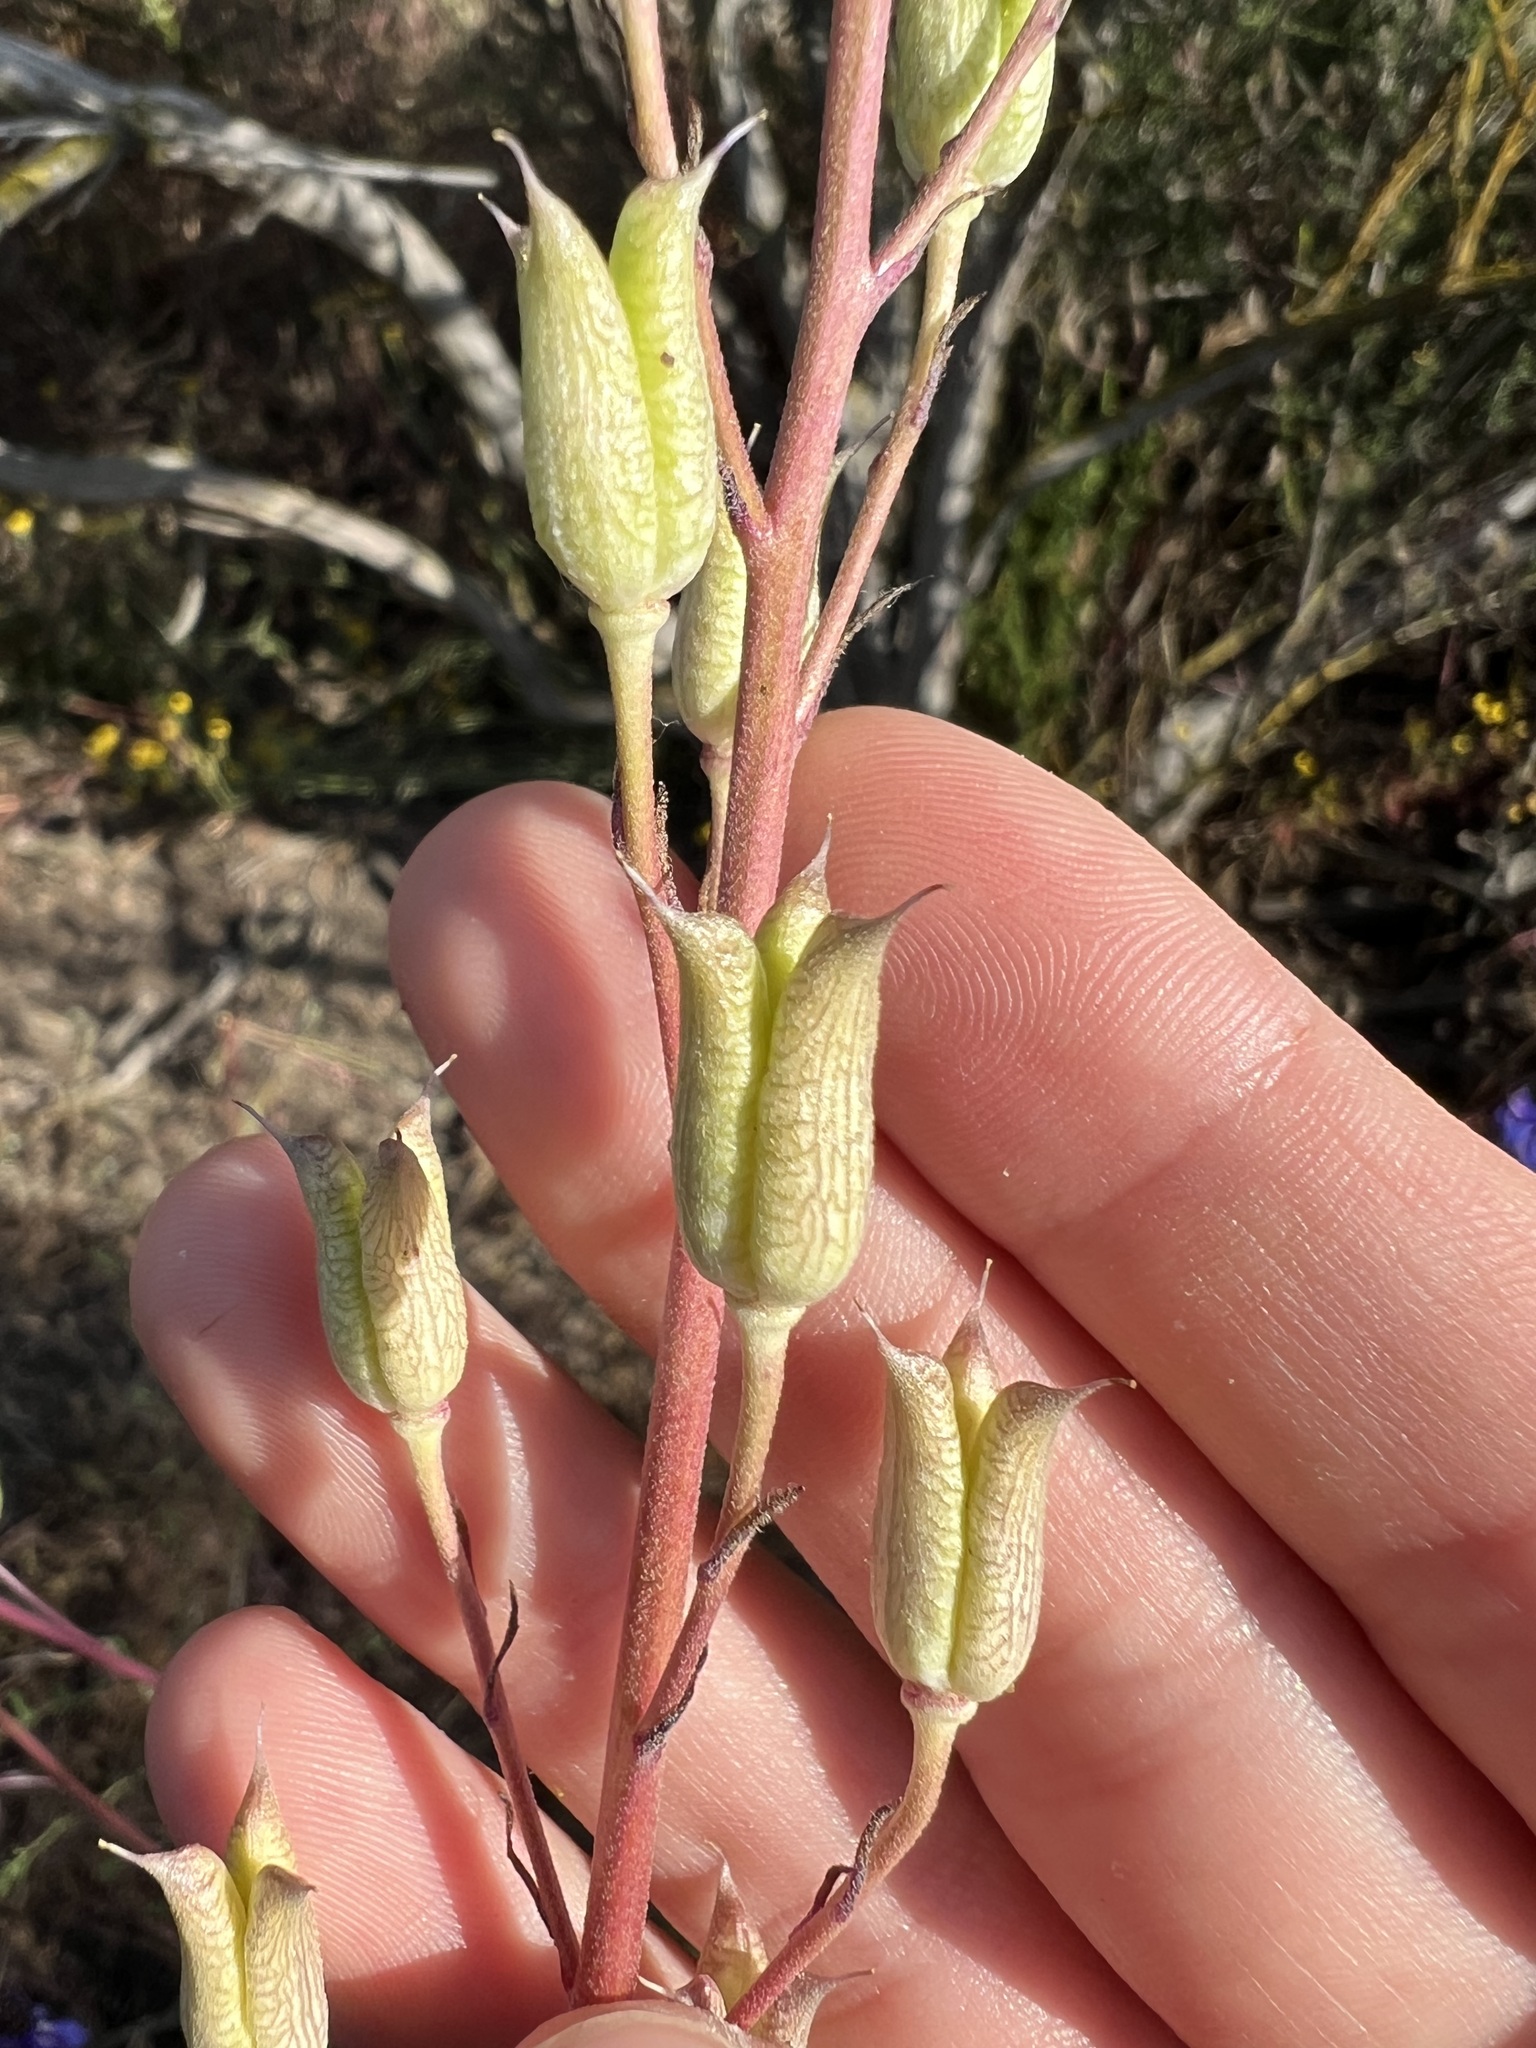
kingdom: Plantae
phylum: Tracheophyta
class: Magnoliopsida
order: Ranunculales
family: Ranunculaceae
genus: Delphinium
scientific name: Delphinium parryi
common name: Parry's larkspur
